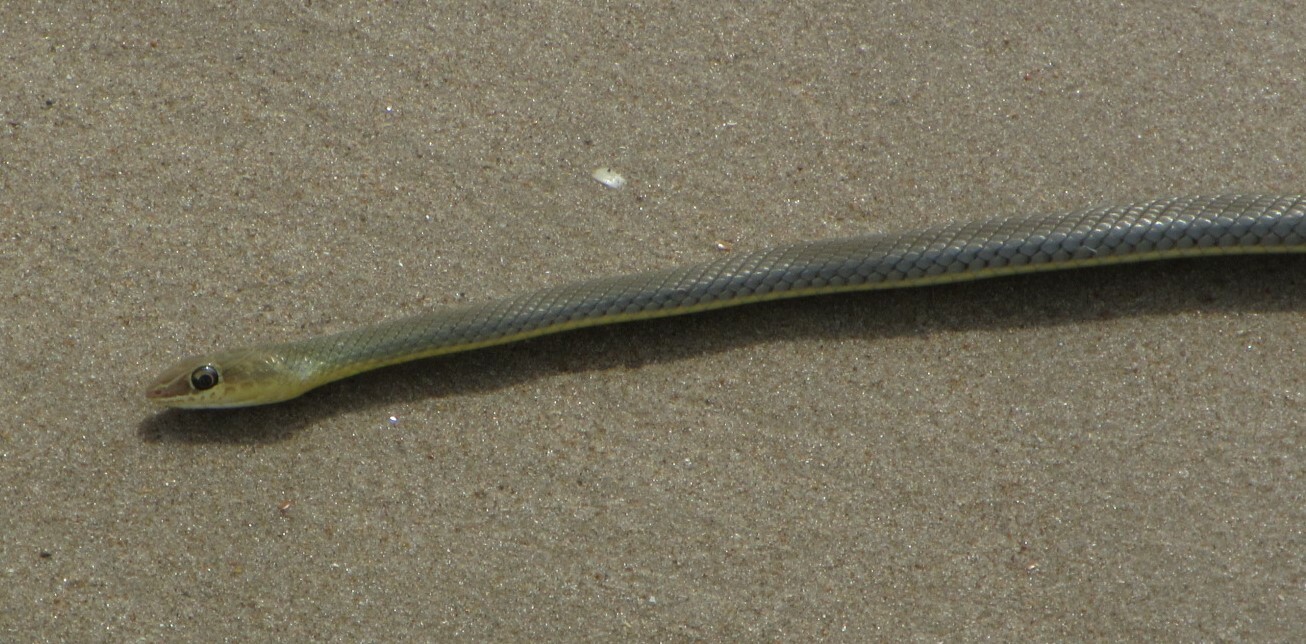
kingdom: Animalia
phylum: Chordata
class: Squamata
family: Psammophiidae
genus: Psammophis
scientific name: Psammophis afroccidentalis
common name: West-african whip snake
